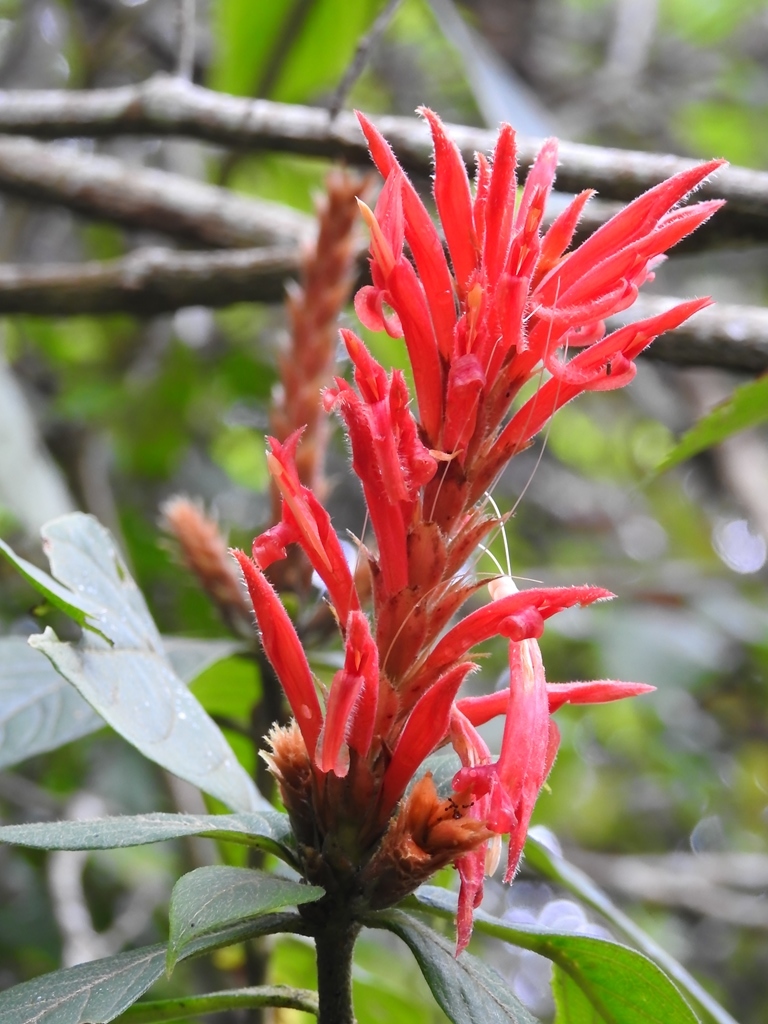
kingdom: Plantae
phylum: Tracheophyta
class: Magnoliopsida
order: Lamiales
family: Acanthaceae
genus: Aphelandra
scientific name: Aphelandra scabra
